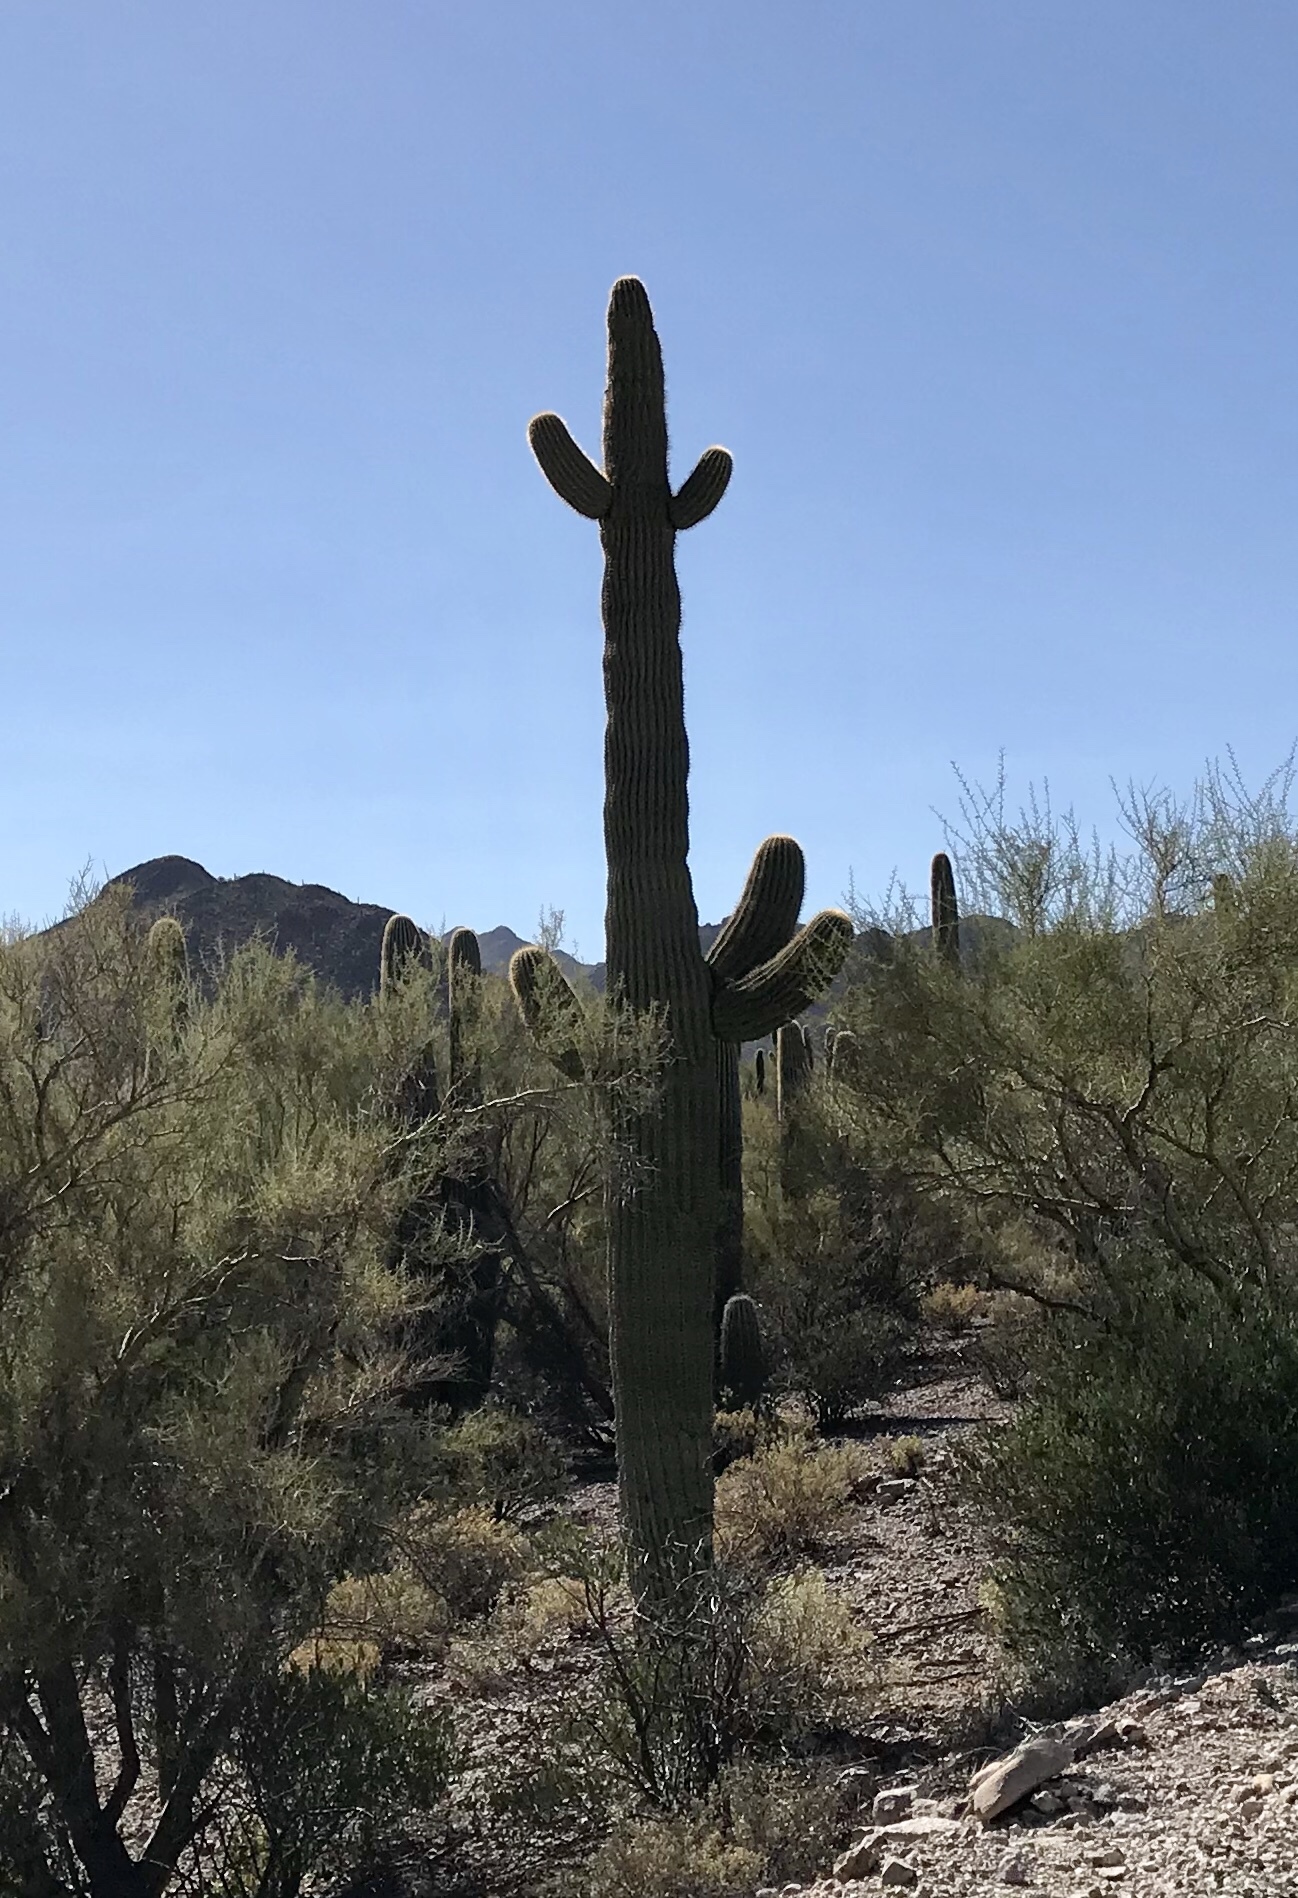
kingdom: Plantae
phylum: Tracheophyta
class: Magnoliopsida
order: Caryophyllales
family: Cactaceae
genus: Carnegiea
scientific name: Carnegiea gigantea
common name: Saguaro
